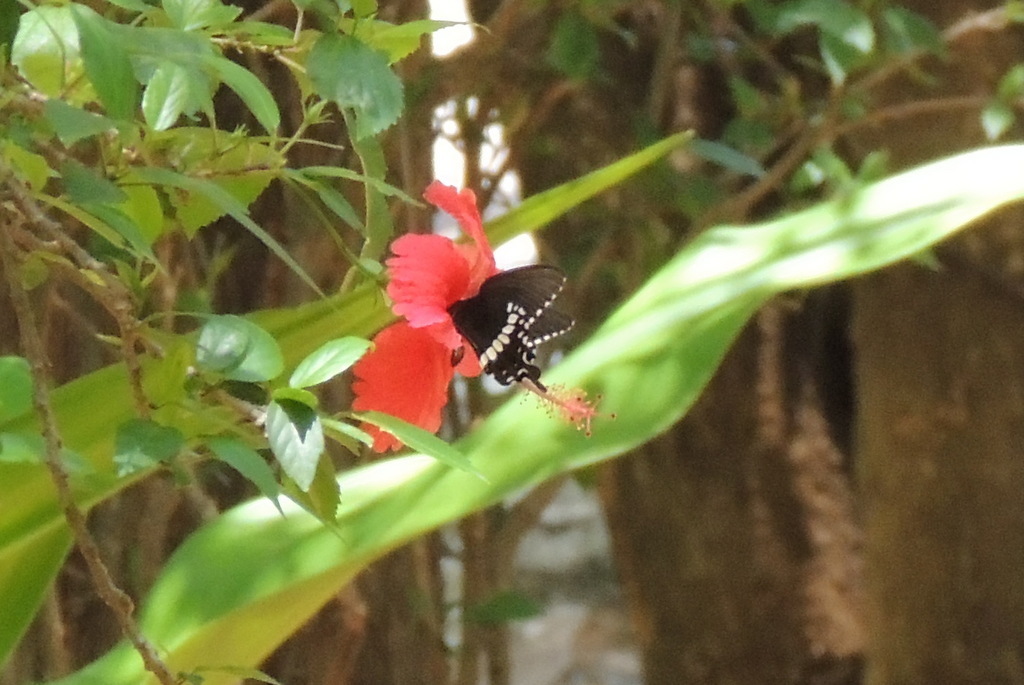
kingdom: Animalia
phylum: Arthropoda
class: Insecta
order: Lepidoptera
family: Papilionidae
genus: Papilio
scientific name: Papilio polytes
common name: Common mormon
